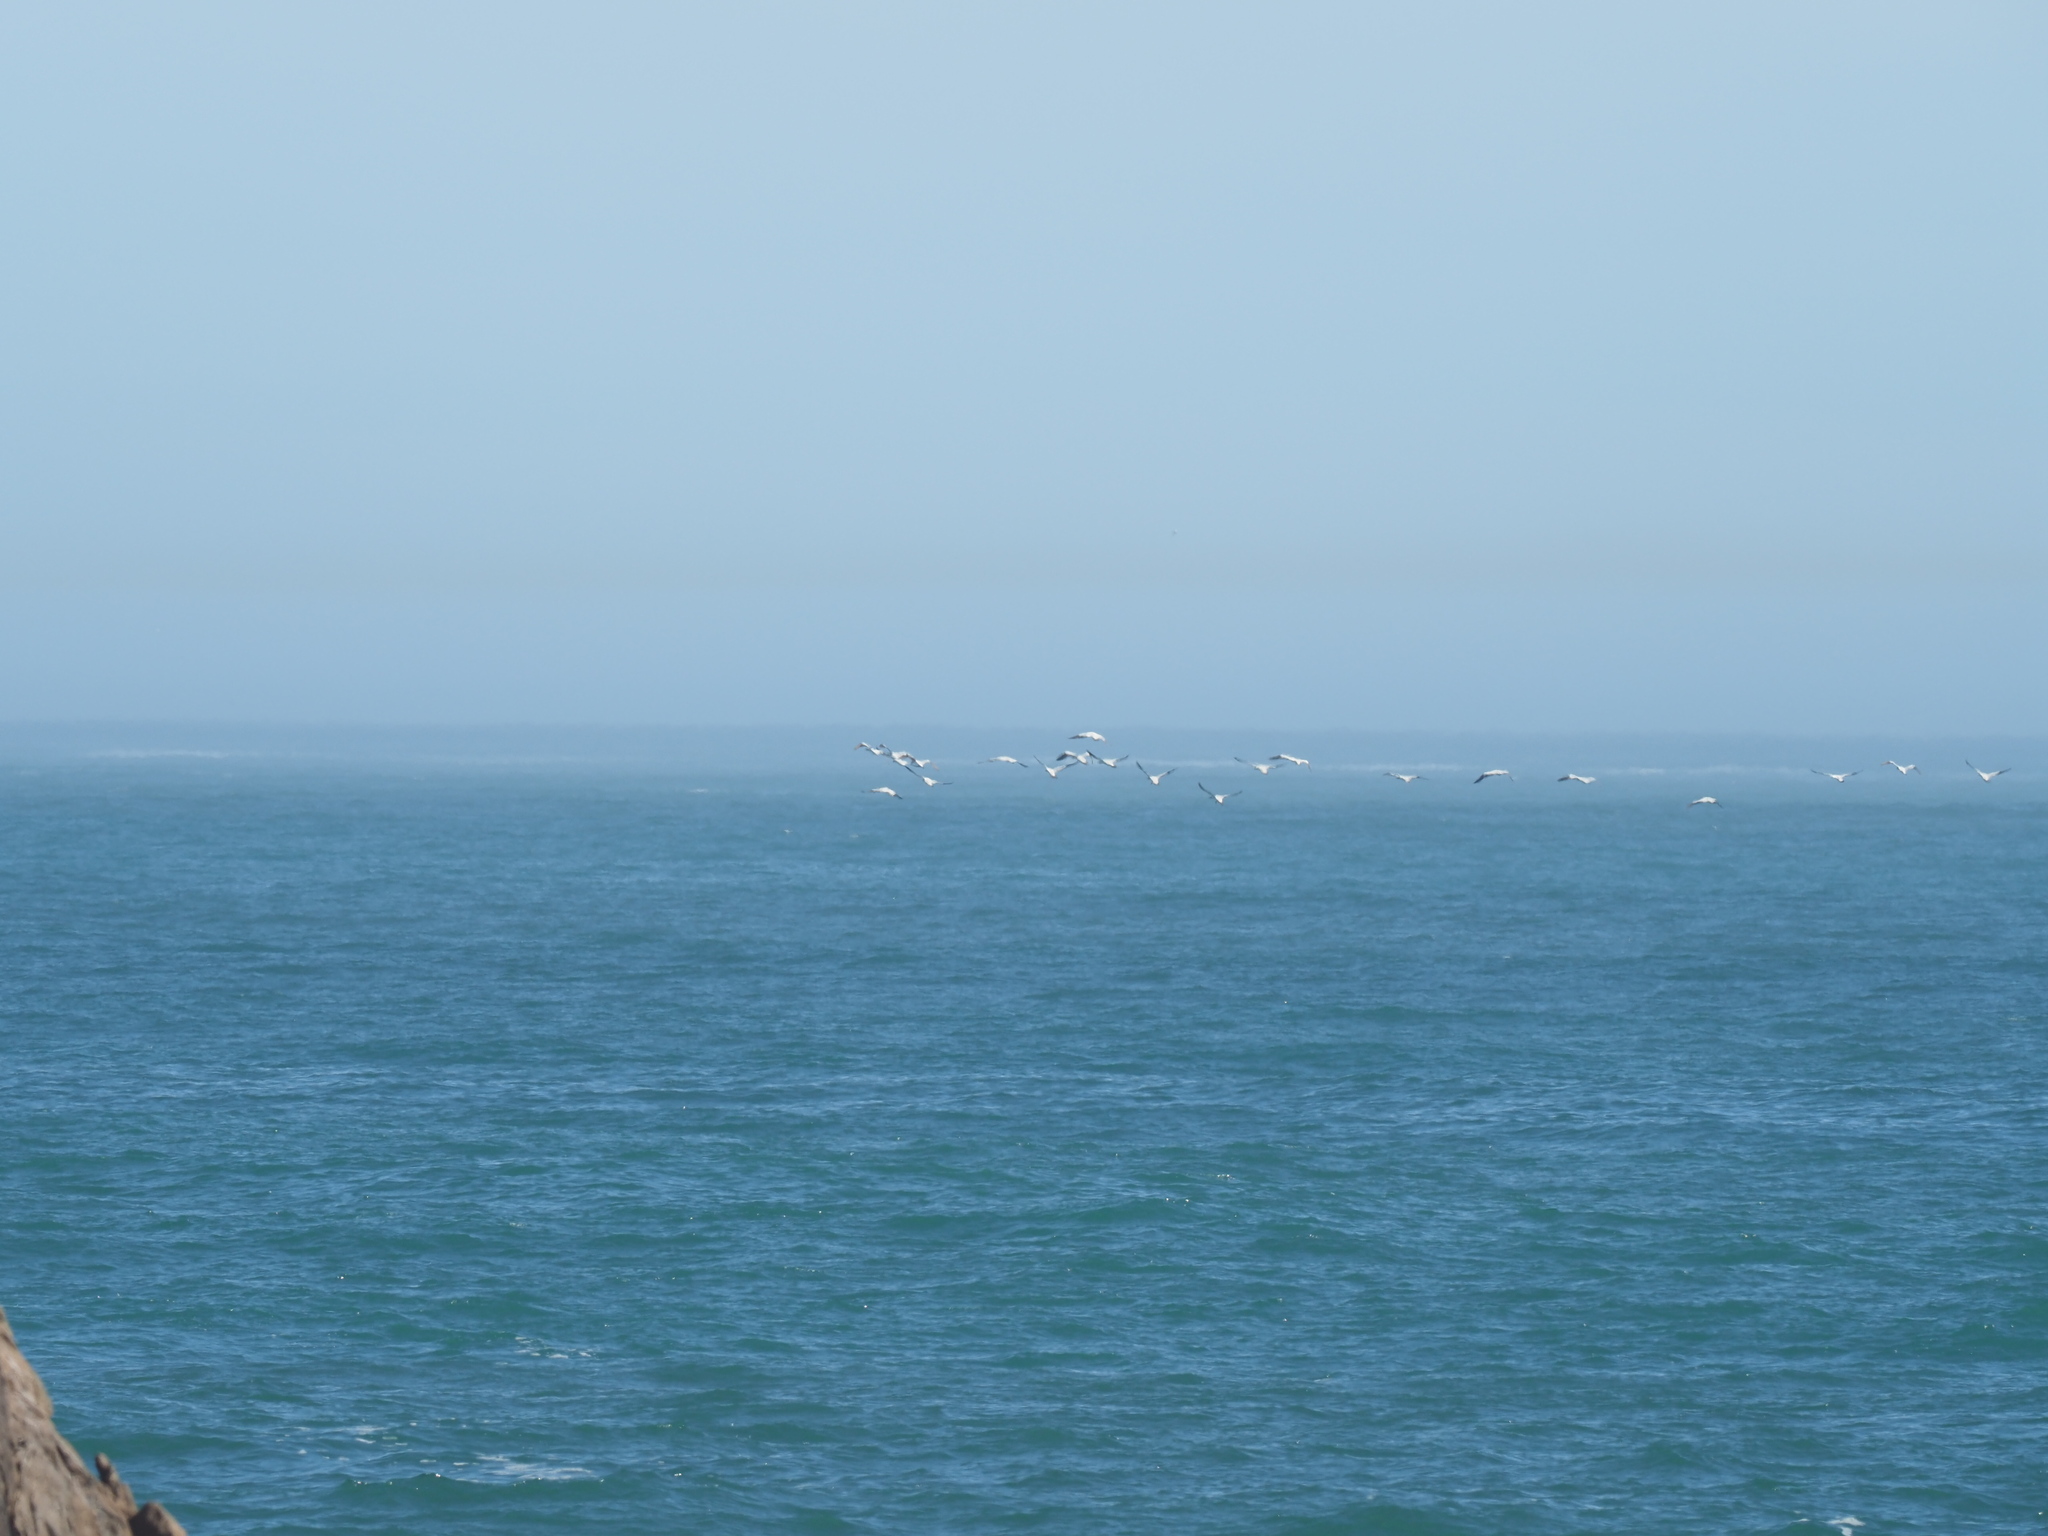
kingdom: Animalia
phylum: Chordata
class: Aves
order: Suliformes
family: Sulidae
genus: Morus
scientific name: Morus capensis
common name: Cape gannet
